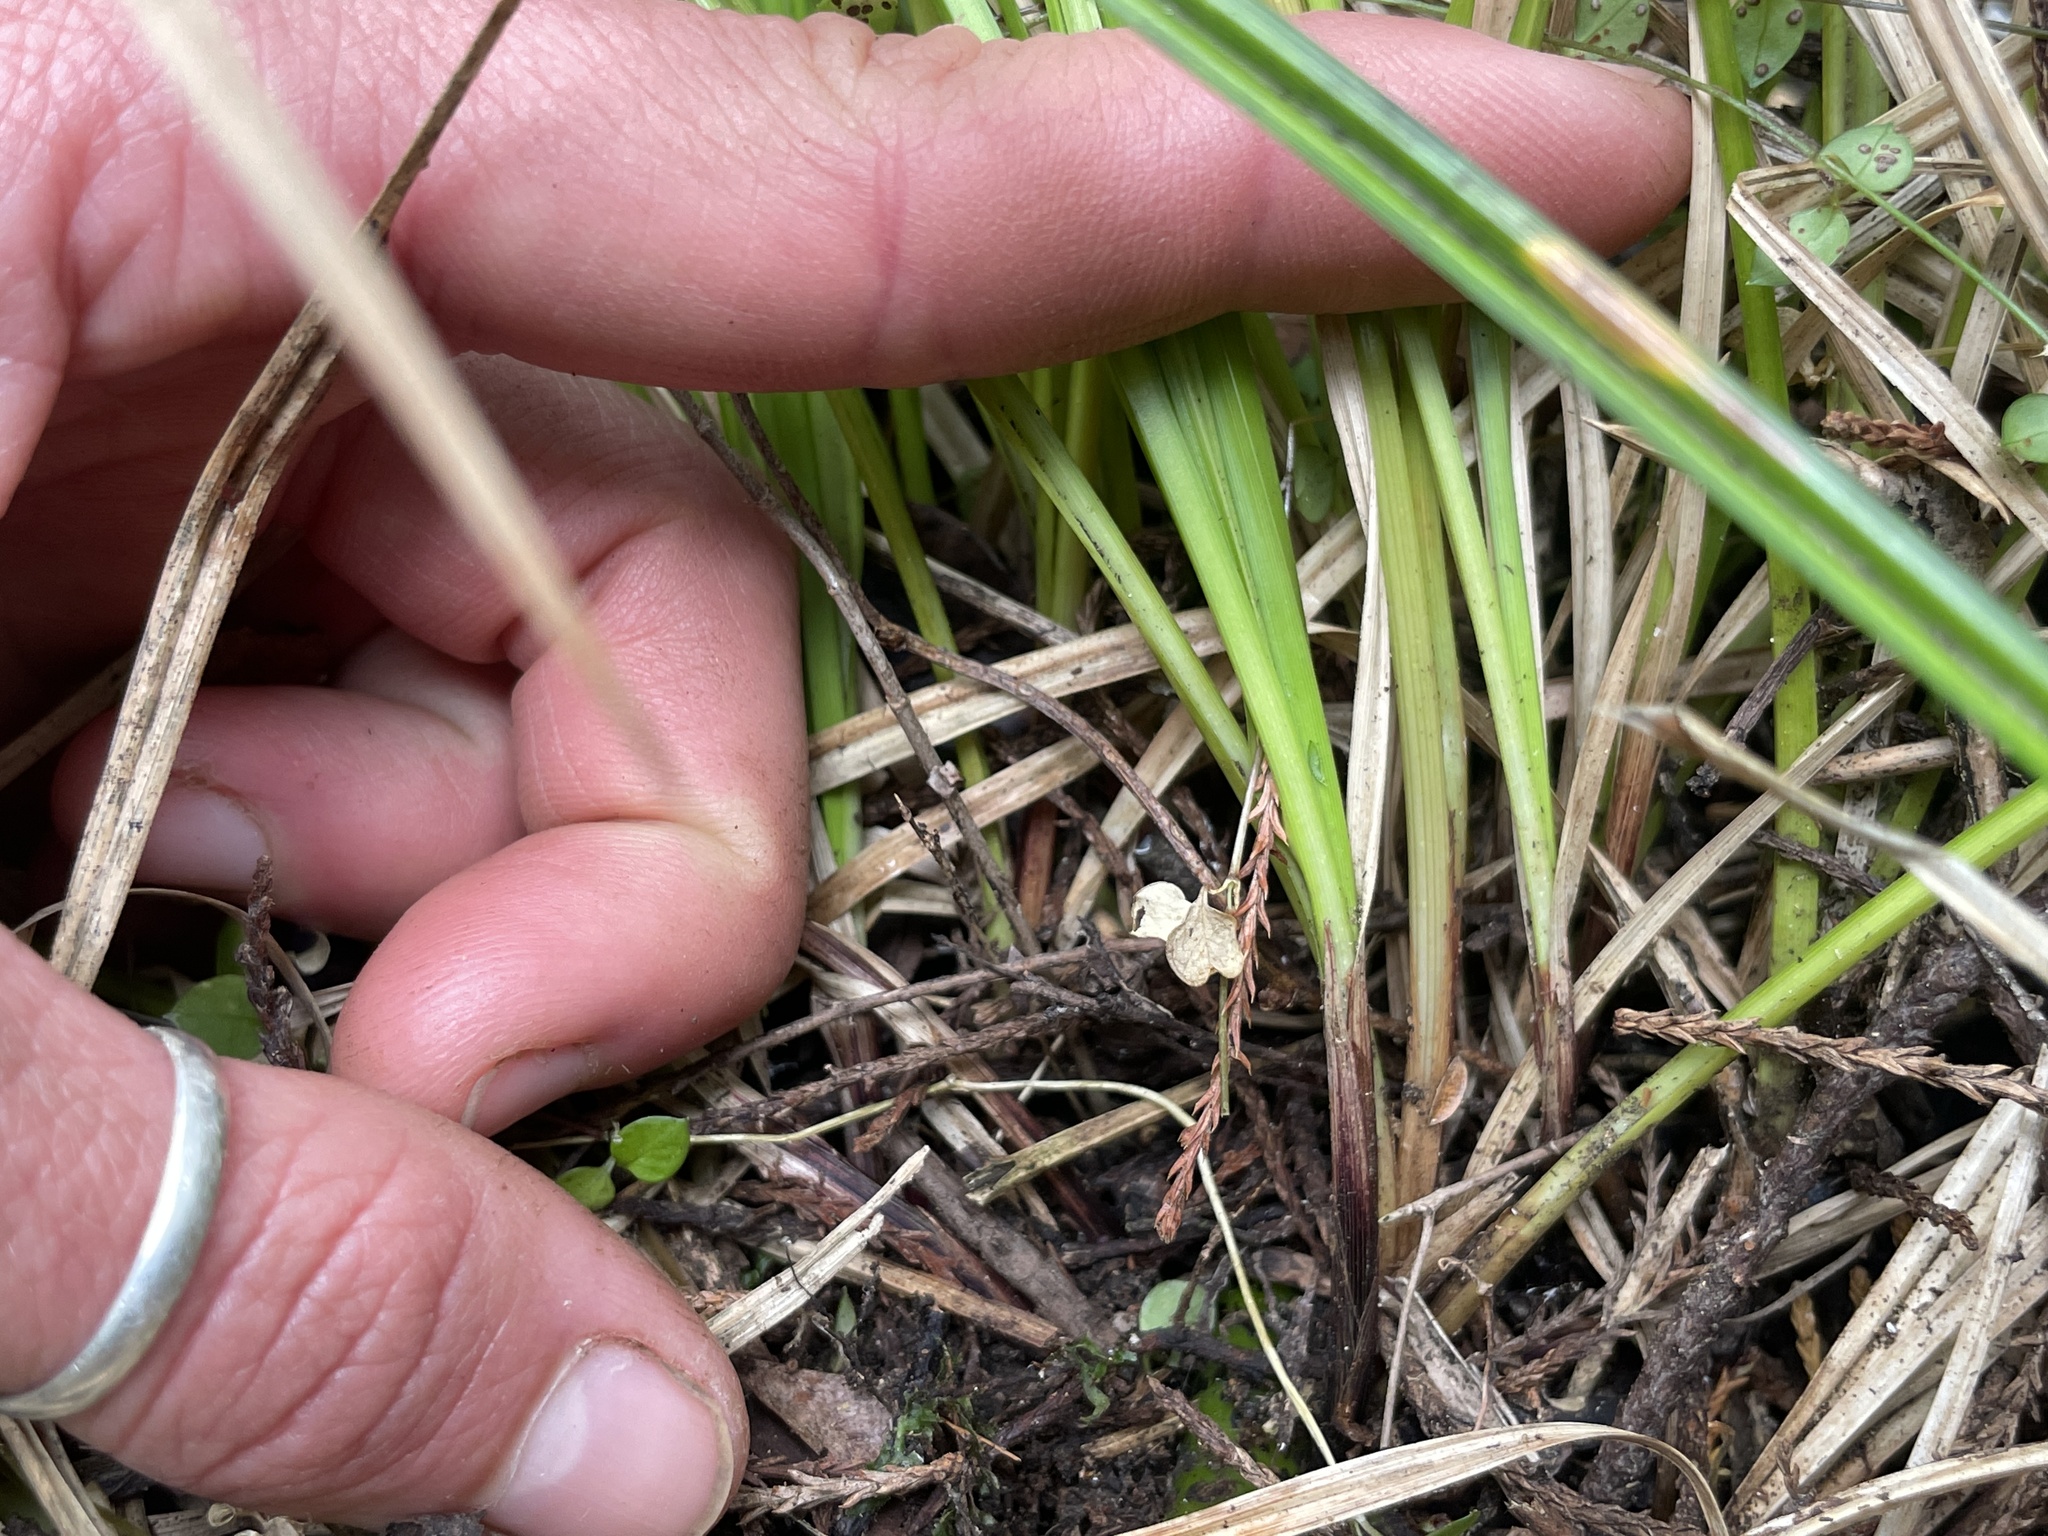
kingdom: Plantae
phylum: Tracheophyta
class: Liliopsida
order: Poales
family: Cyperaceae
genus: Carex
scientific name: Carex dissita
